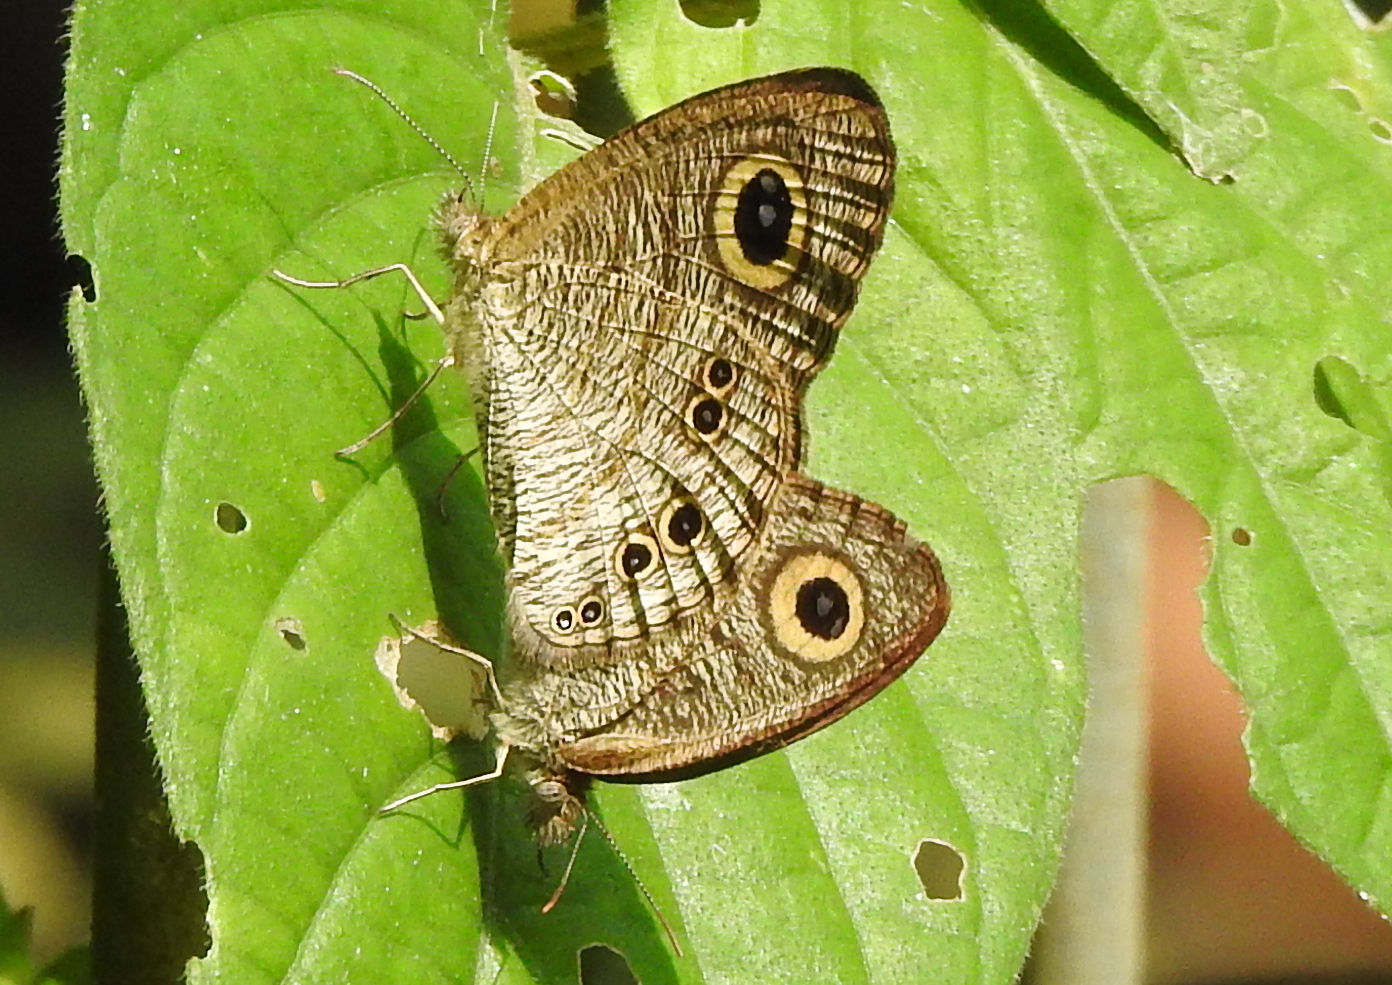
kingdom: Animalia
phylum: Arthropoda
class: Insecta
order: Lepidoptera
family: Nymphalidae
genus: Ypthima
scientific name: Ypthima baldus
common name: Common five-ring
